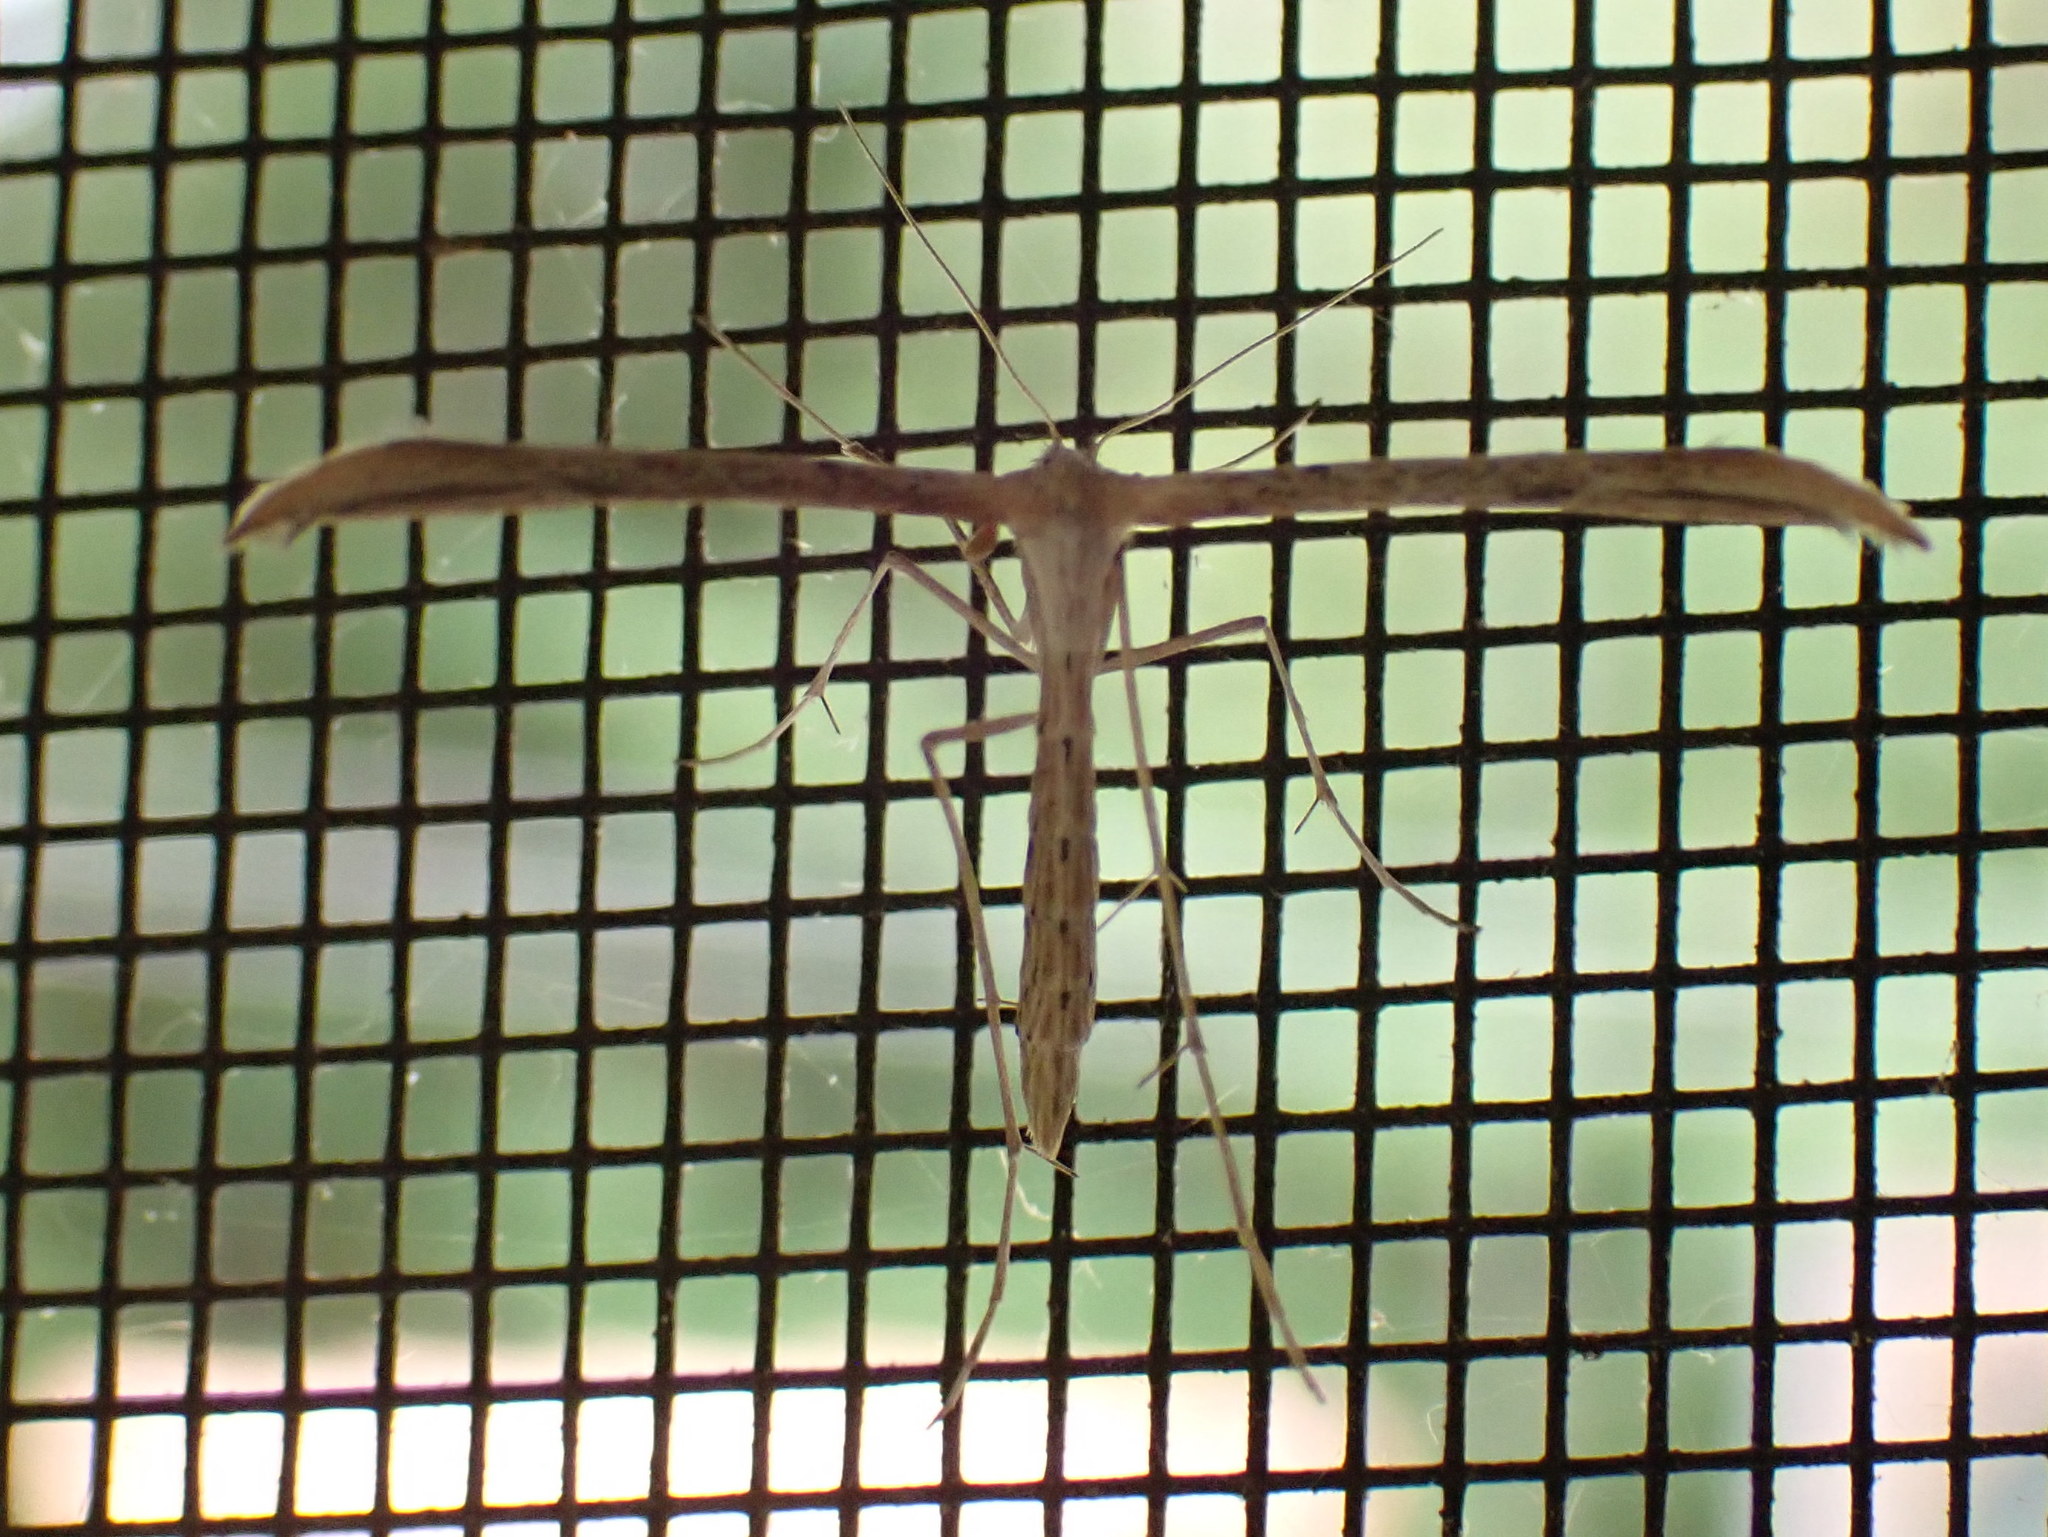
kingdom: Animalia
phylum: Arthropoda
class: Insecta
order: Lepidoptera
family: Pterophoridae
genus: Emmelina
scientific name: Emmelina monodactyla
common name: Common plume
